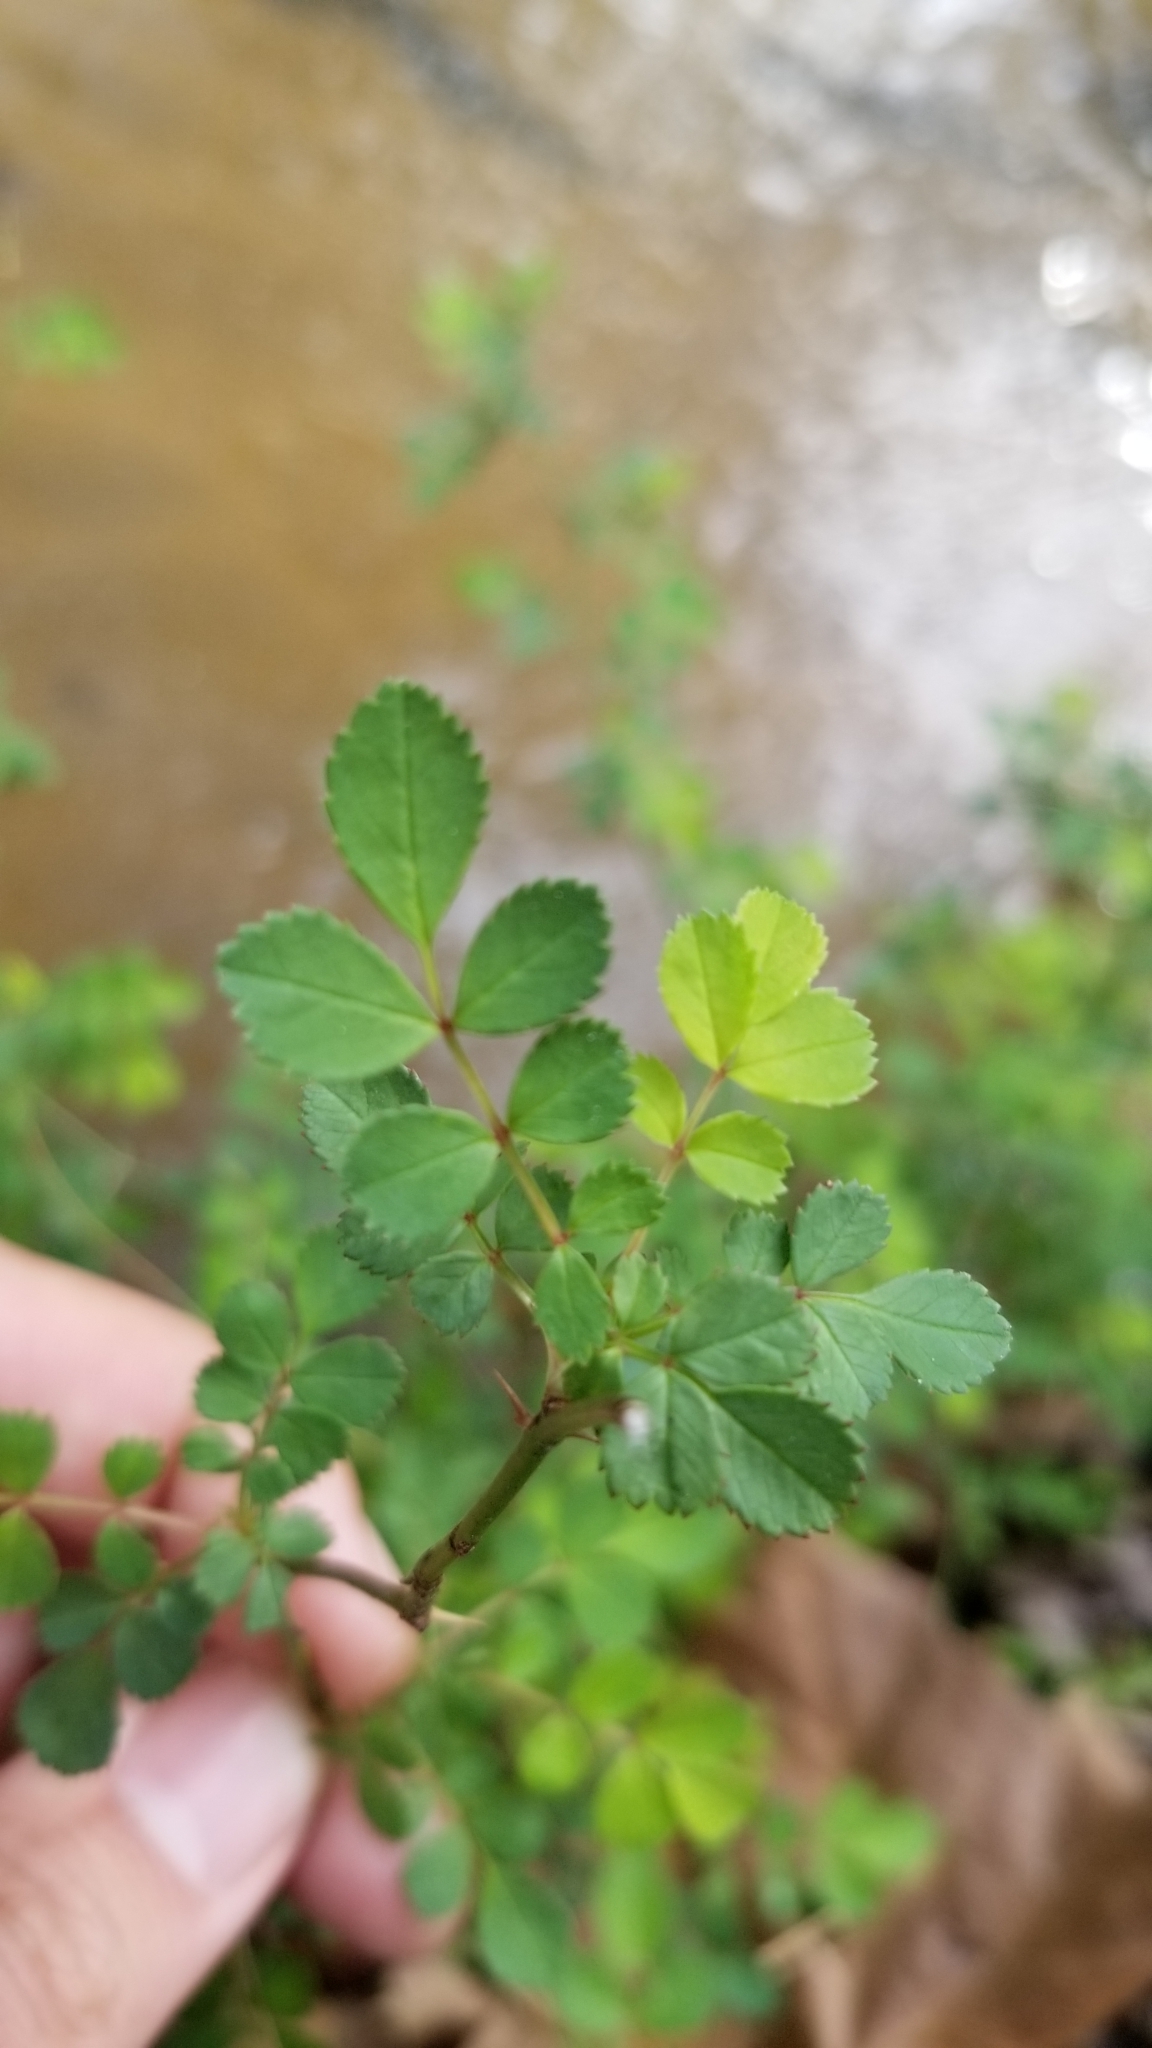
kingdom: Plantae
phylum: Tracheophyta
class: Magnoliopsida
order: Rosales
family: Rosaceae
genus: Rosa
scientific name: Rosa multiflora
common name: Multiflora rose
